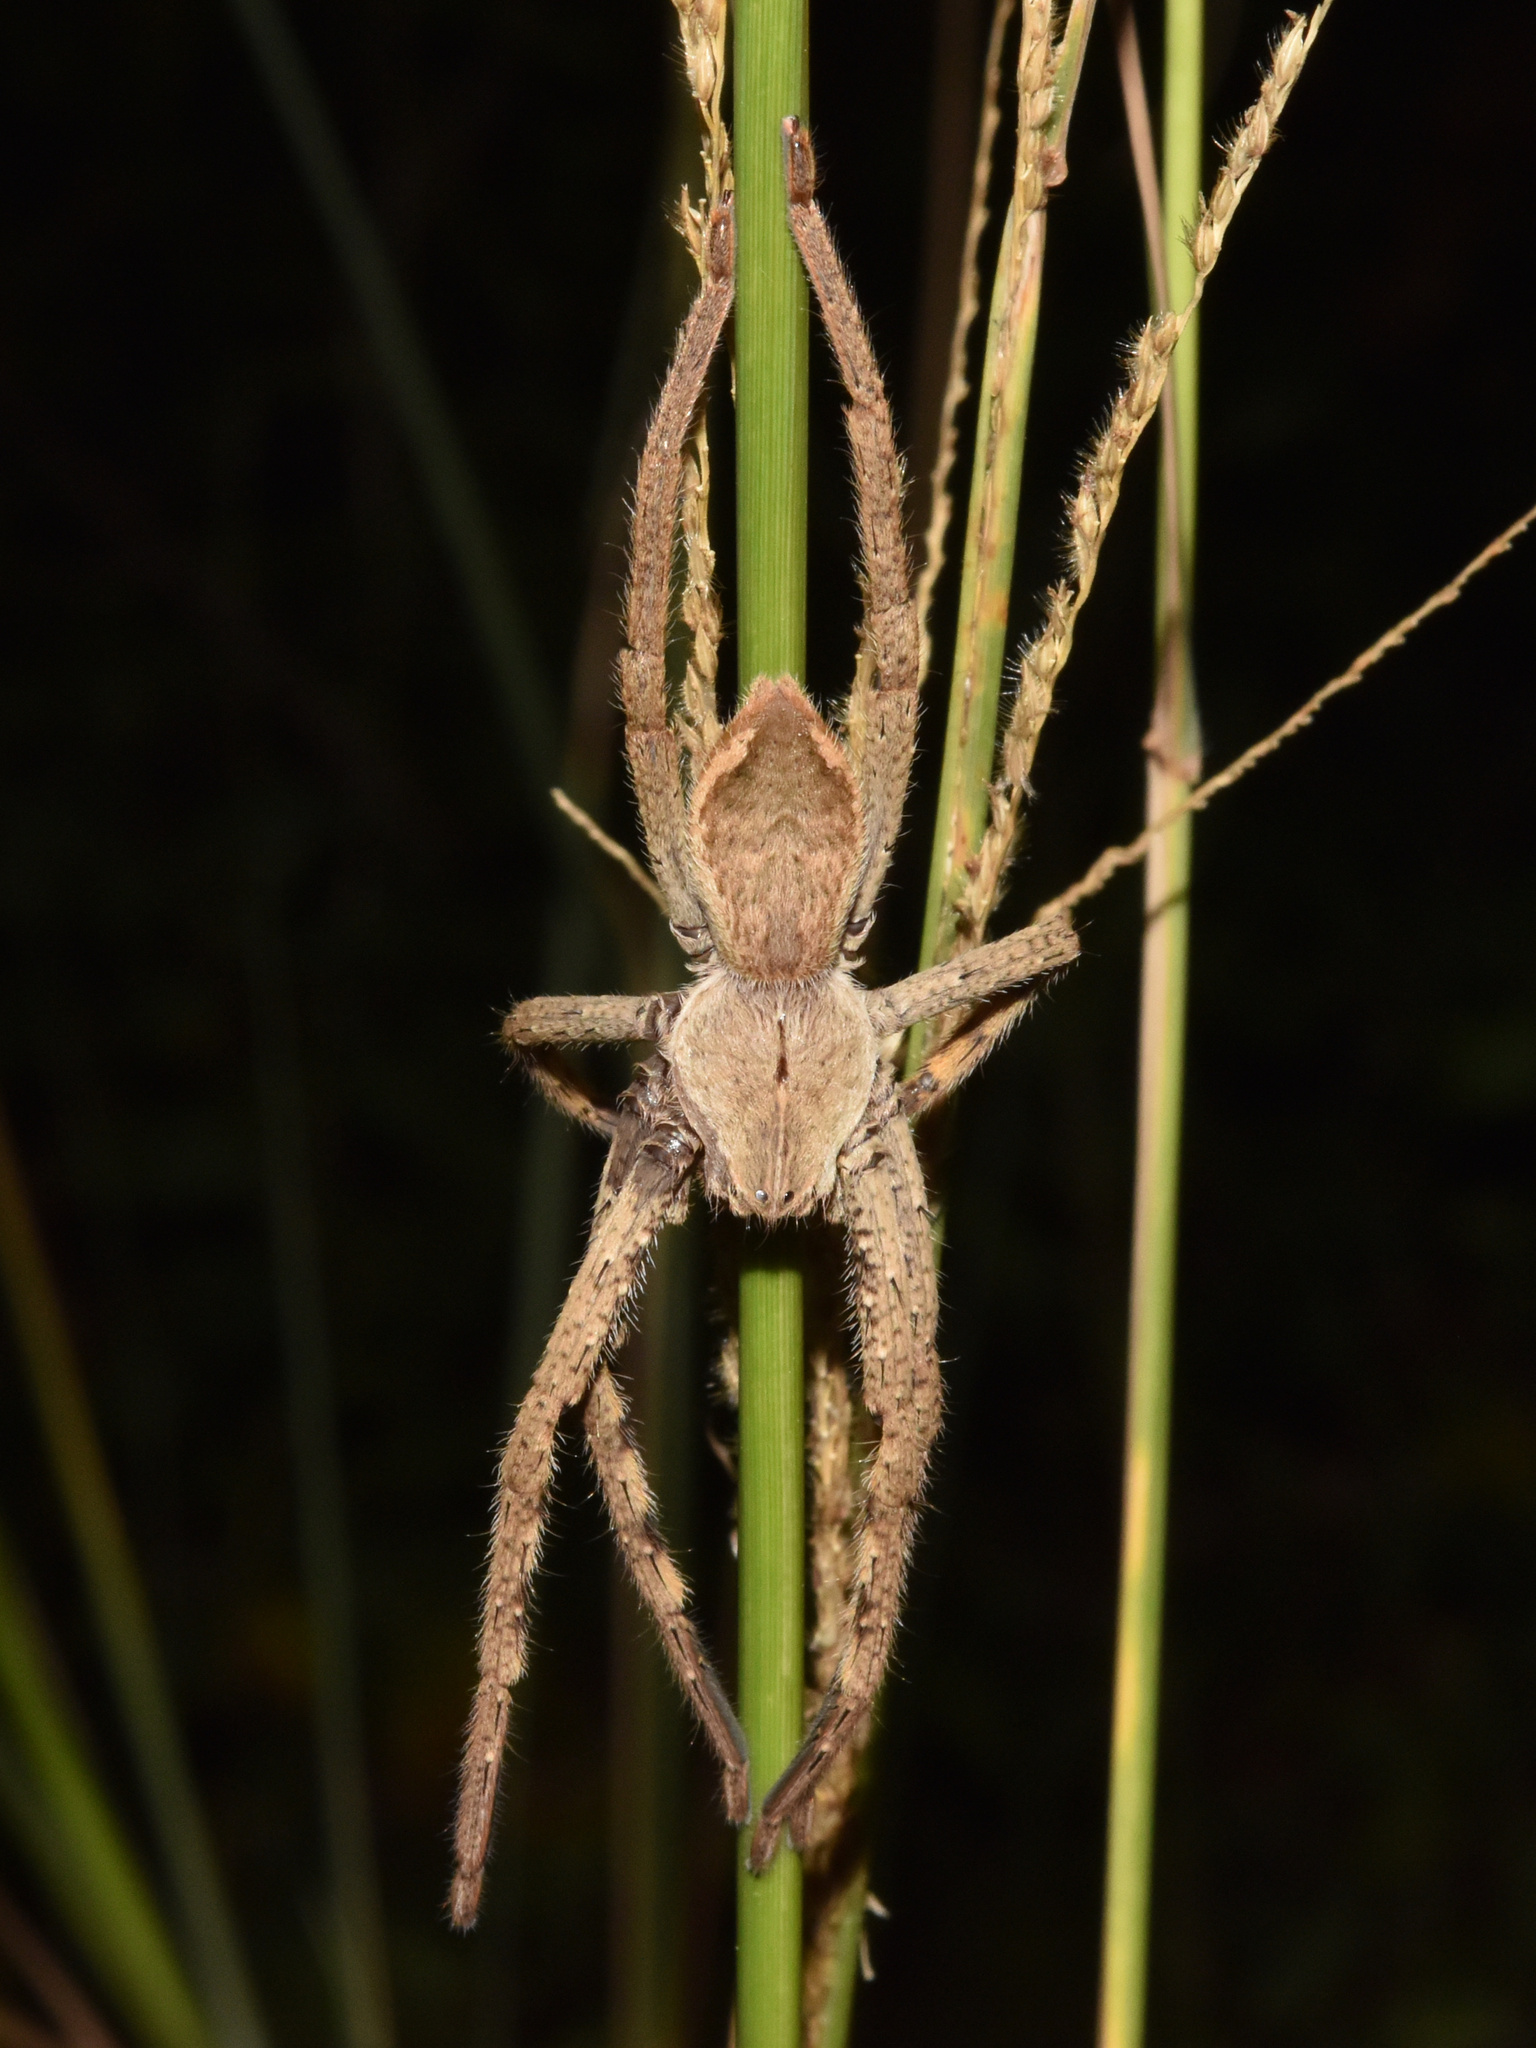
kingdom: Animalia
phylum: Arthropoda
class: Arachnida
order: Araneae
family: Sparassidae
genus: Palystes
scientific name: Palystes superciliosus
